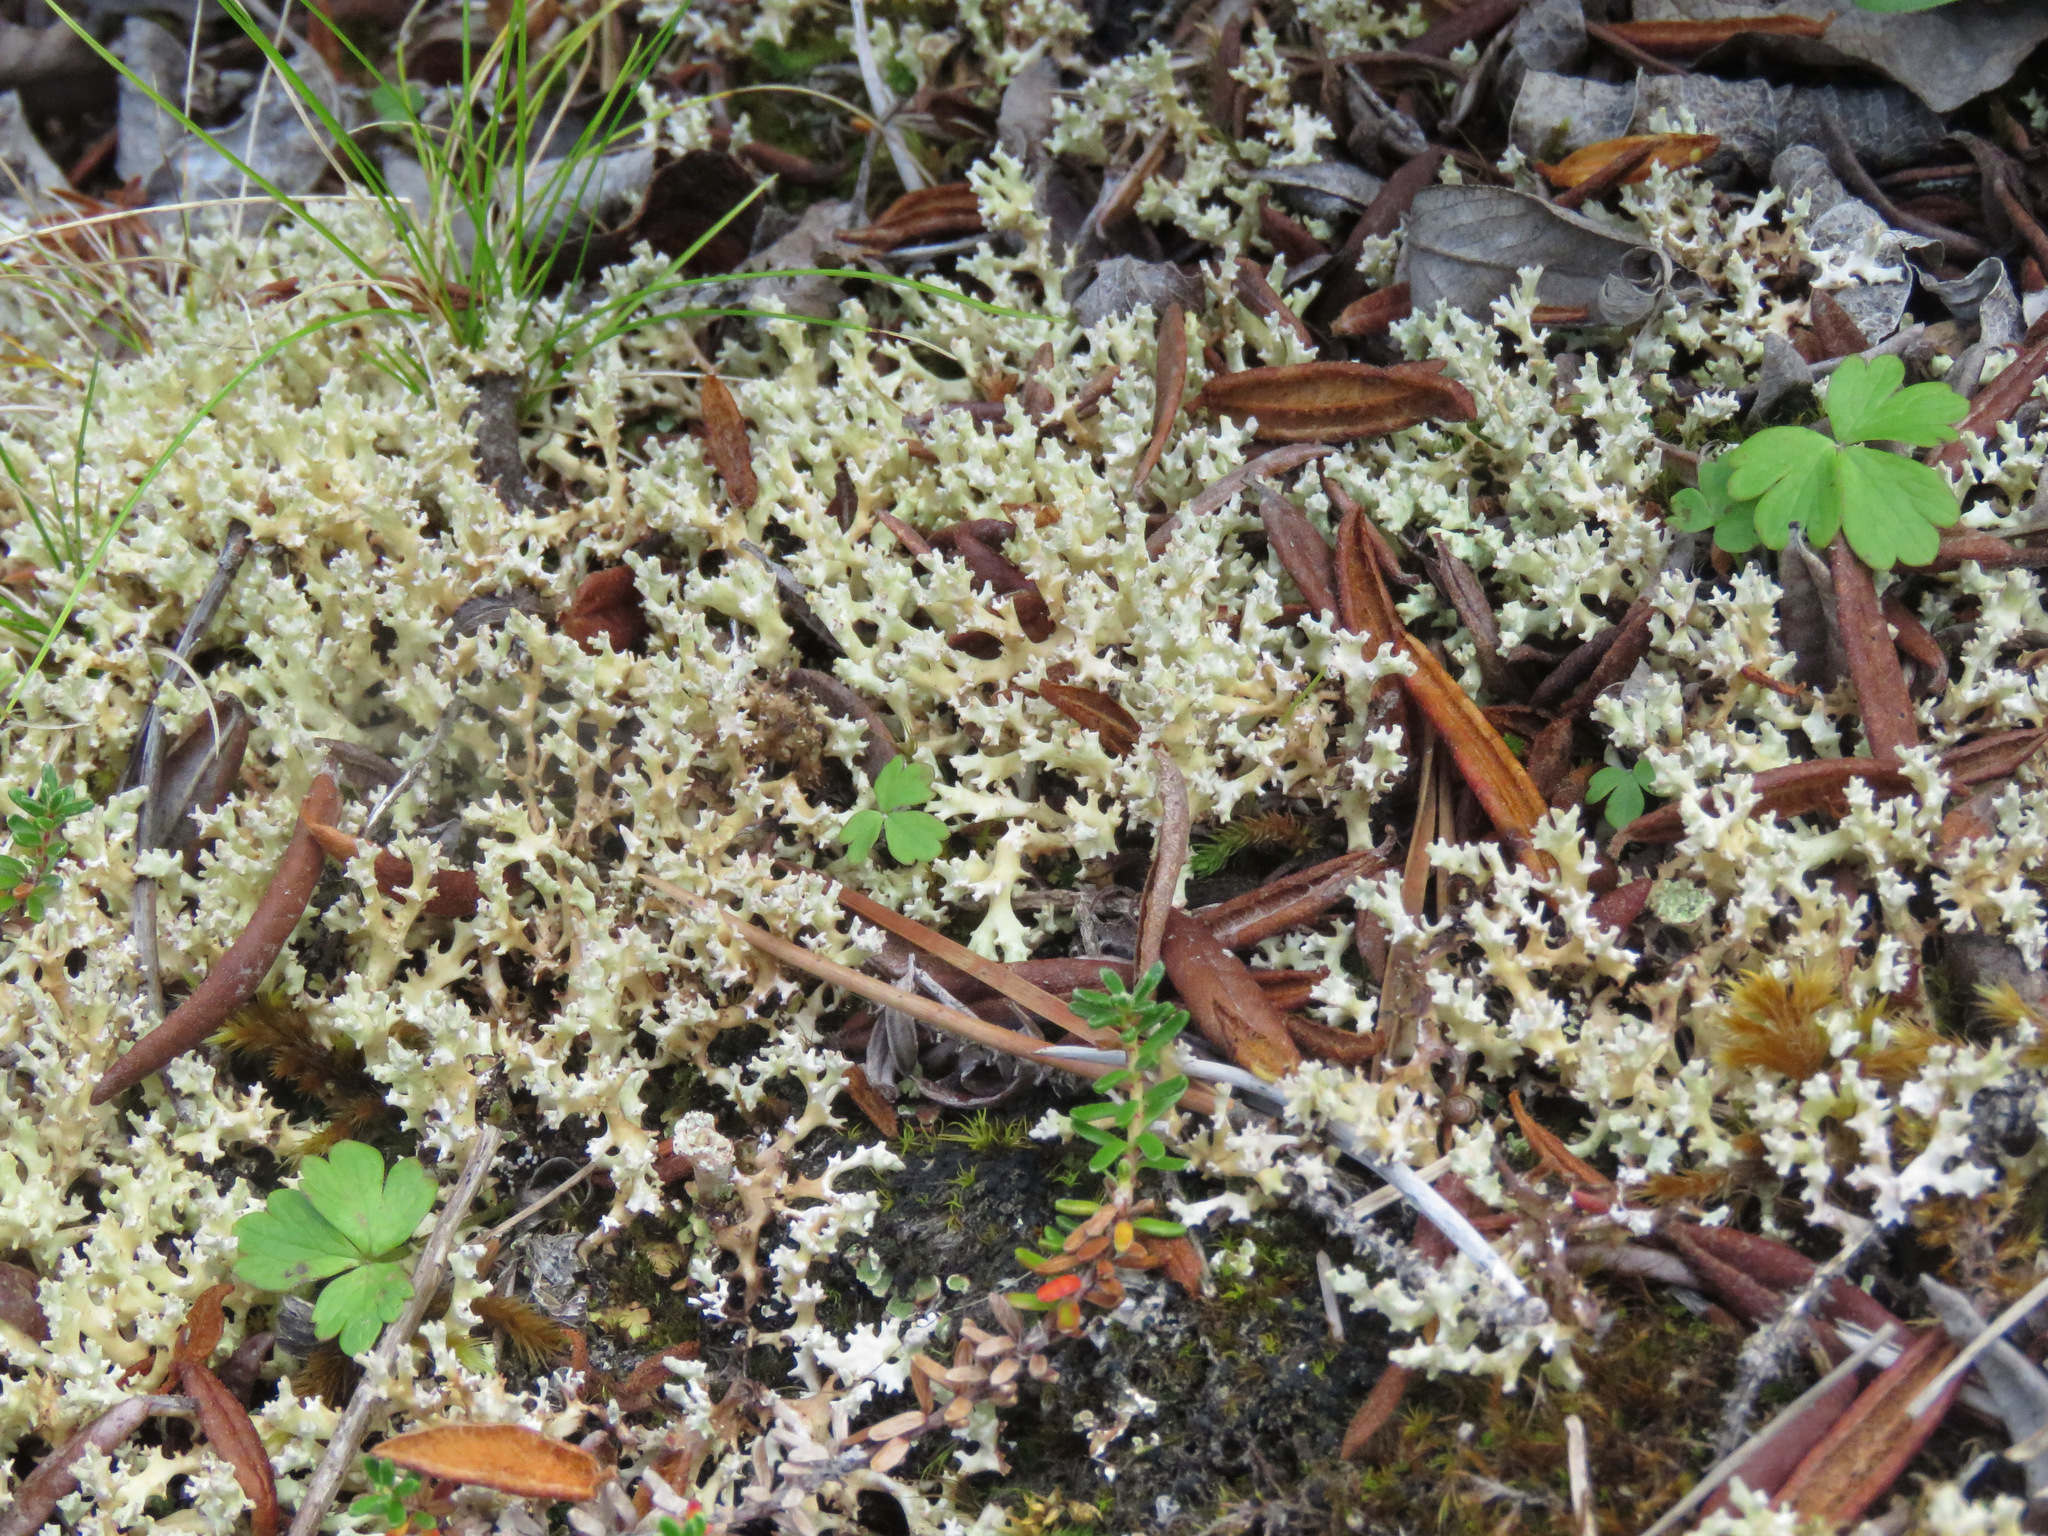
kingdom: Fungi
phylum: Ascomycota
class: Lecanoromycetes
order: Lecanorales
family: Parmeliaceae
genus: Dactylina
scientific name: Dactylina ramulosa
